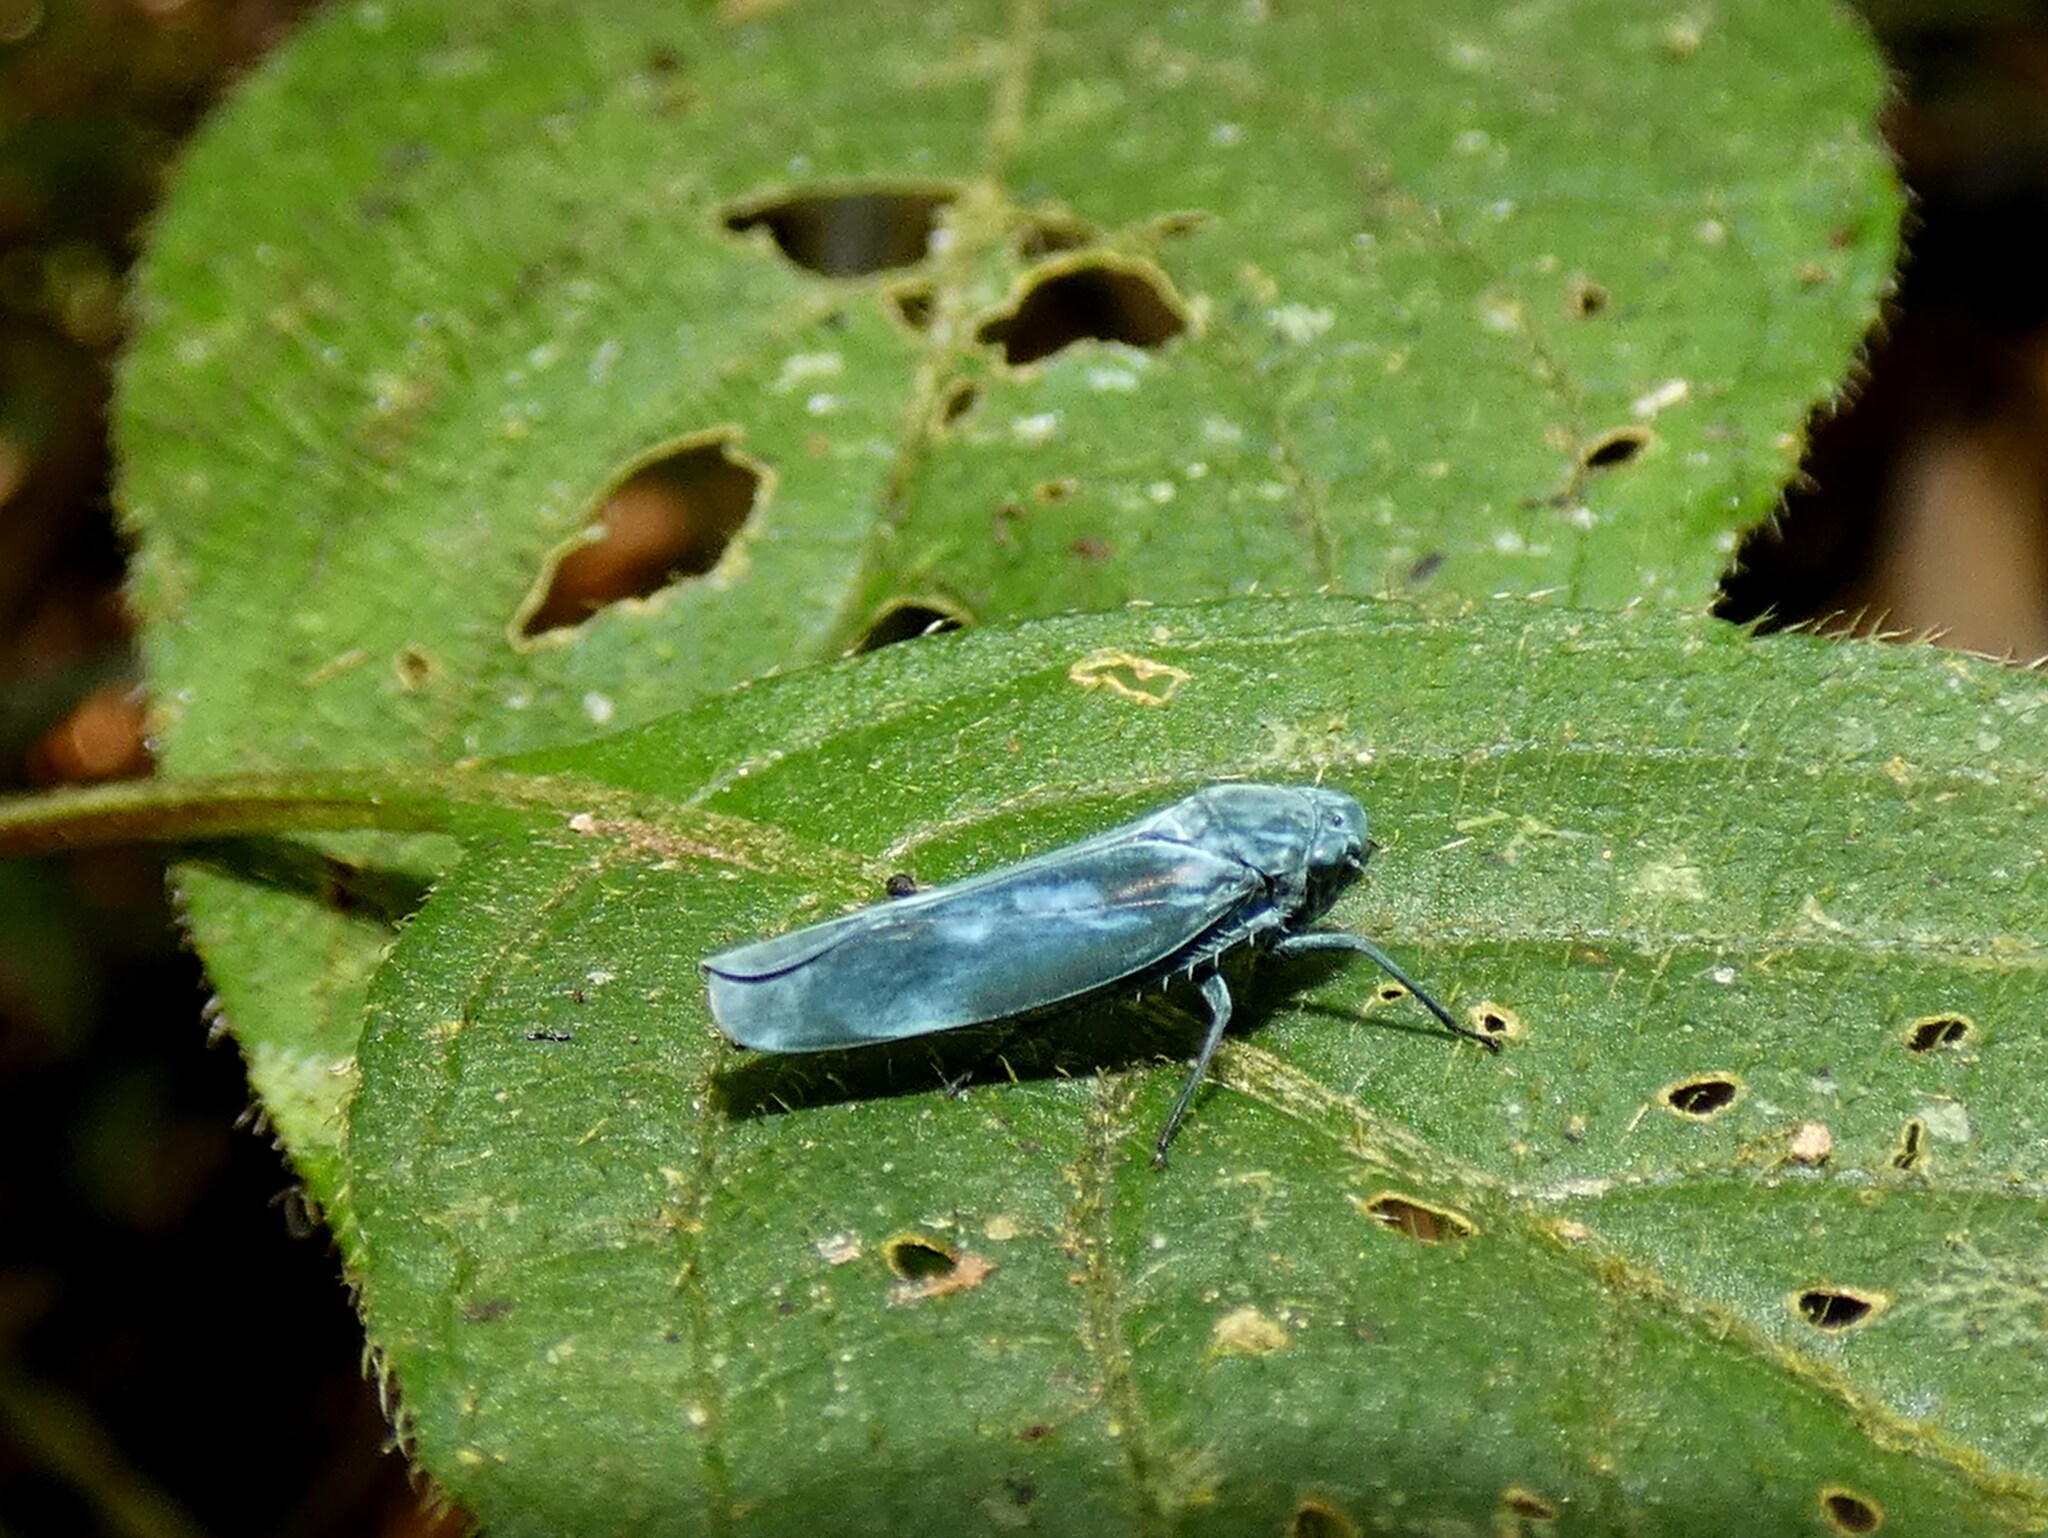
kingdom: Animalia
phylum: Arthropoda
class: Insecta
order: Hemiptera
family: Cicadellidae
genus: Madumbra
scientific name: Madumbra melancholica
